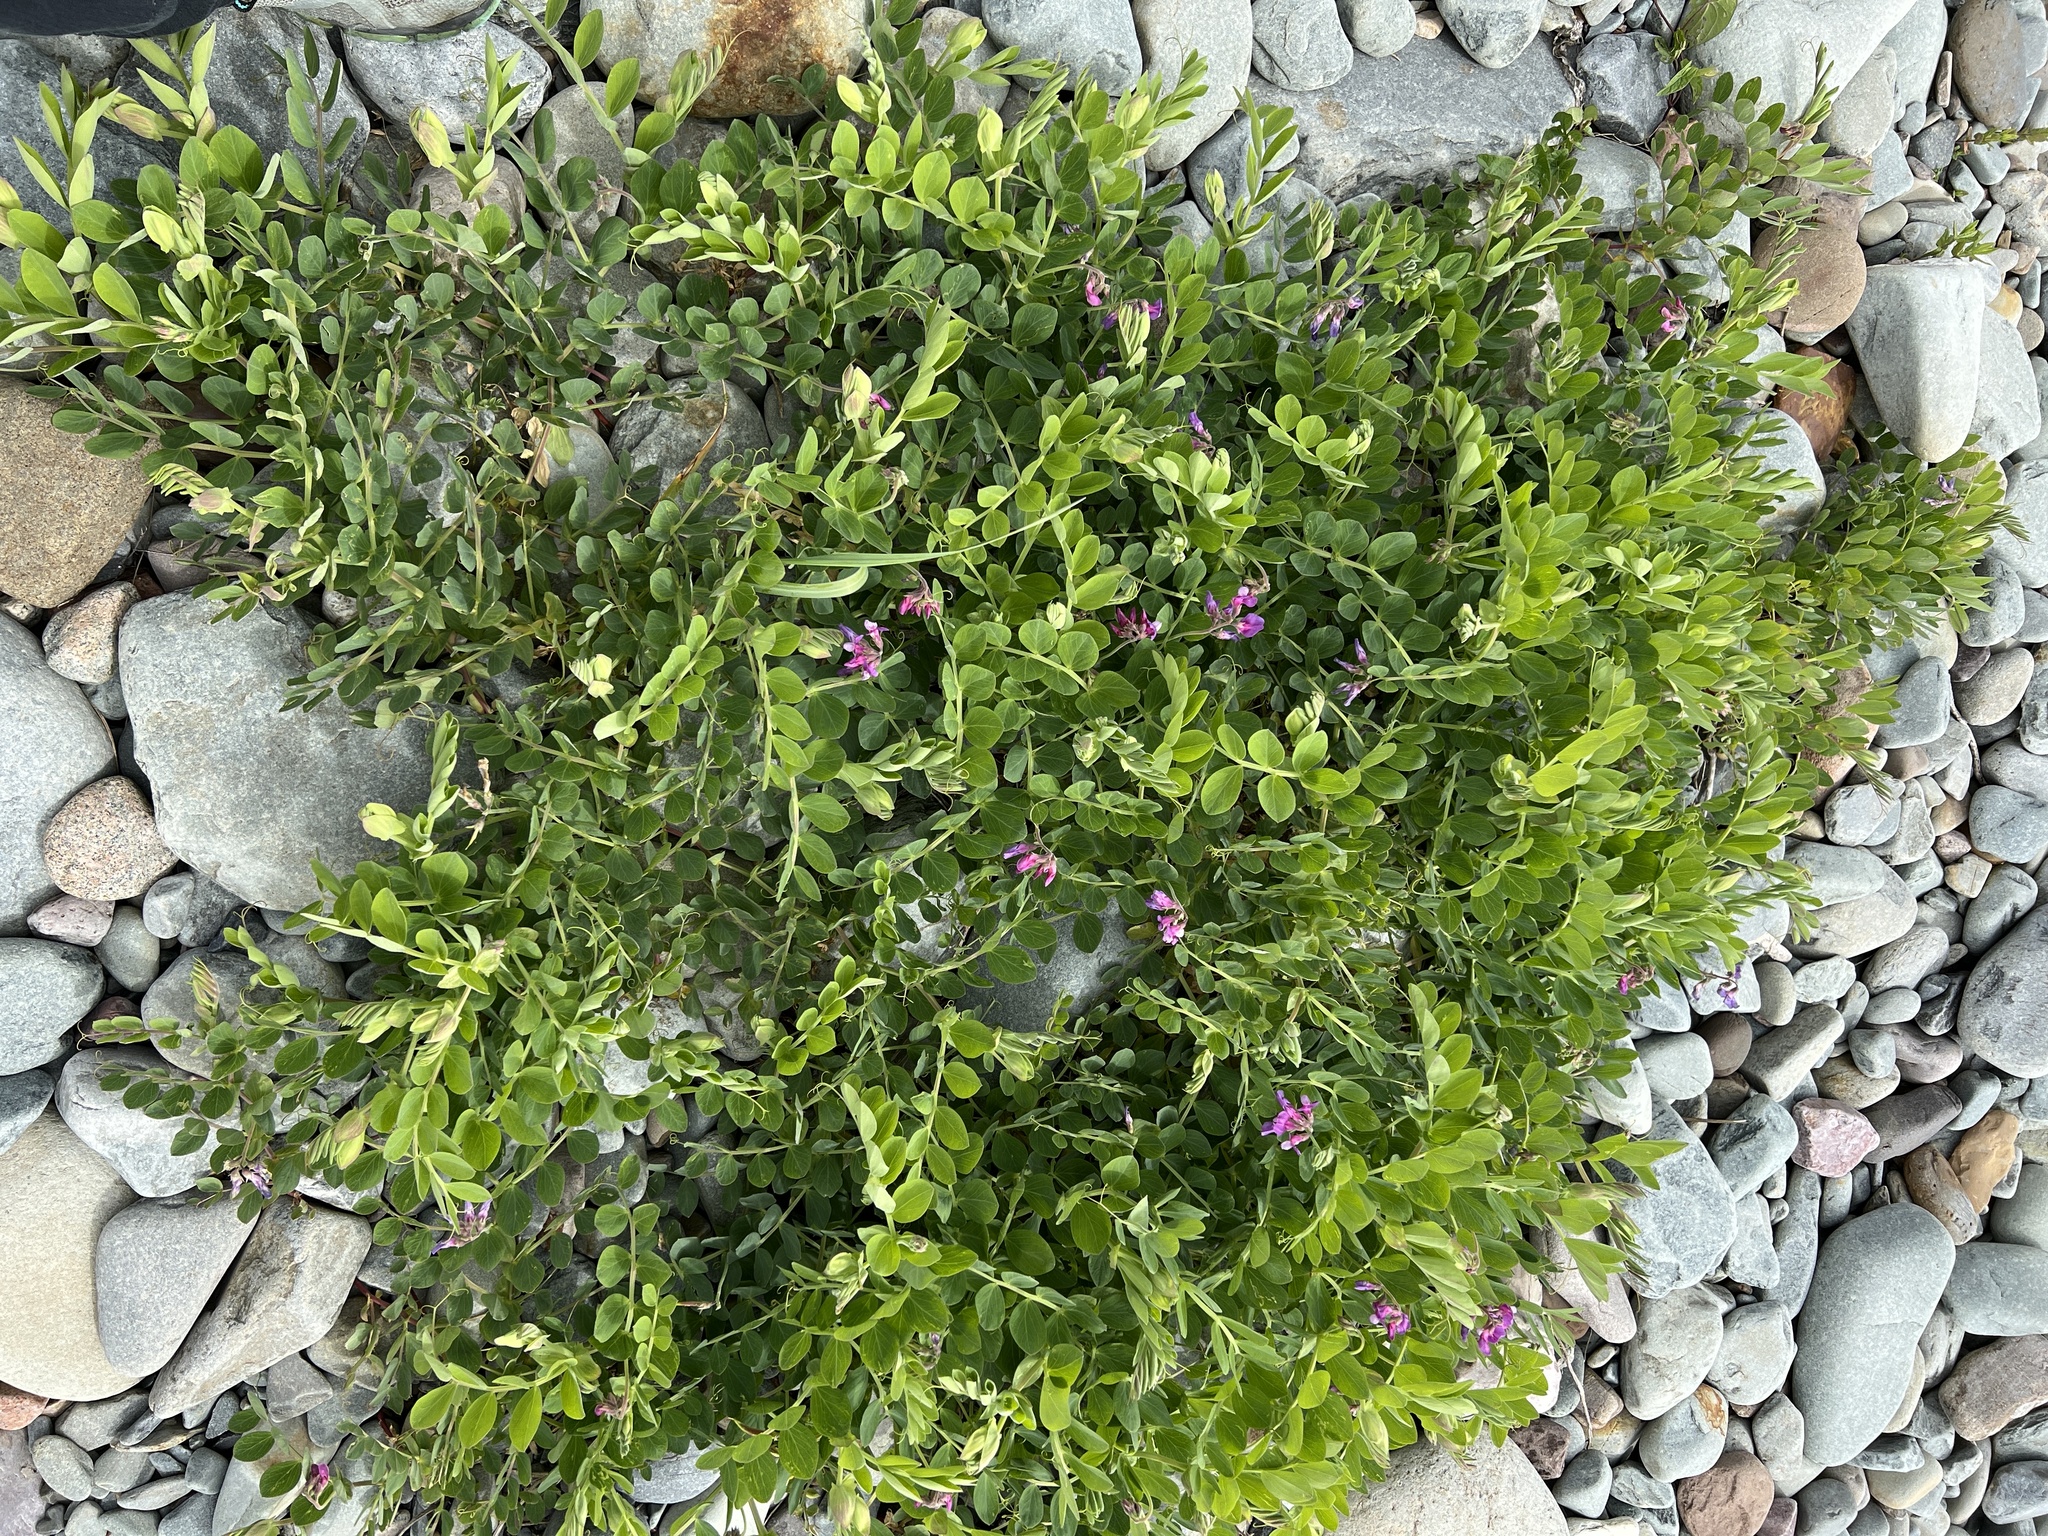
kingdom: Plantae
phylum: Tracheophyta
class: Magnoliopsida
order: Fabales
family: Fabaceae
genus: Lathyrus
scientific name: Lathyrus japonicus
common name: Sea pea
